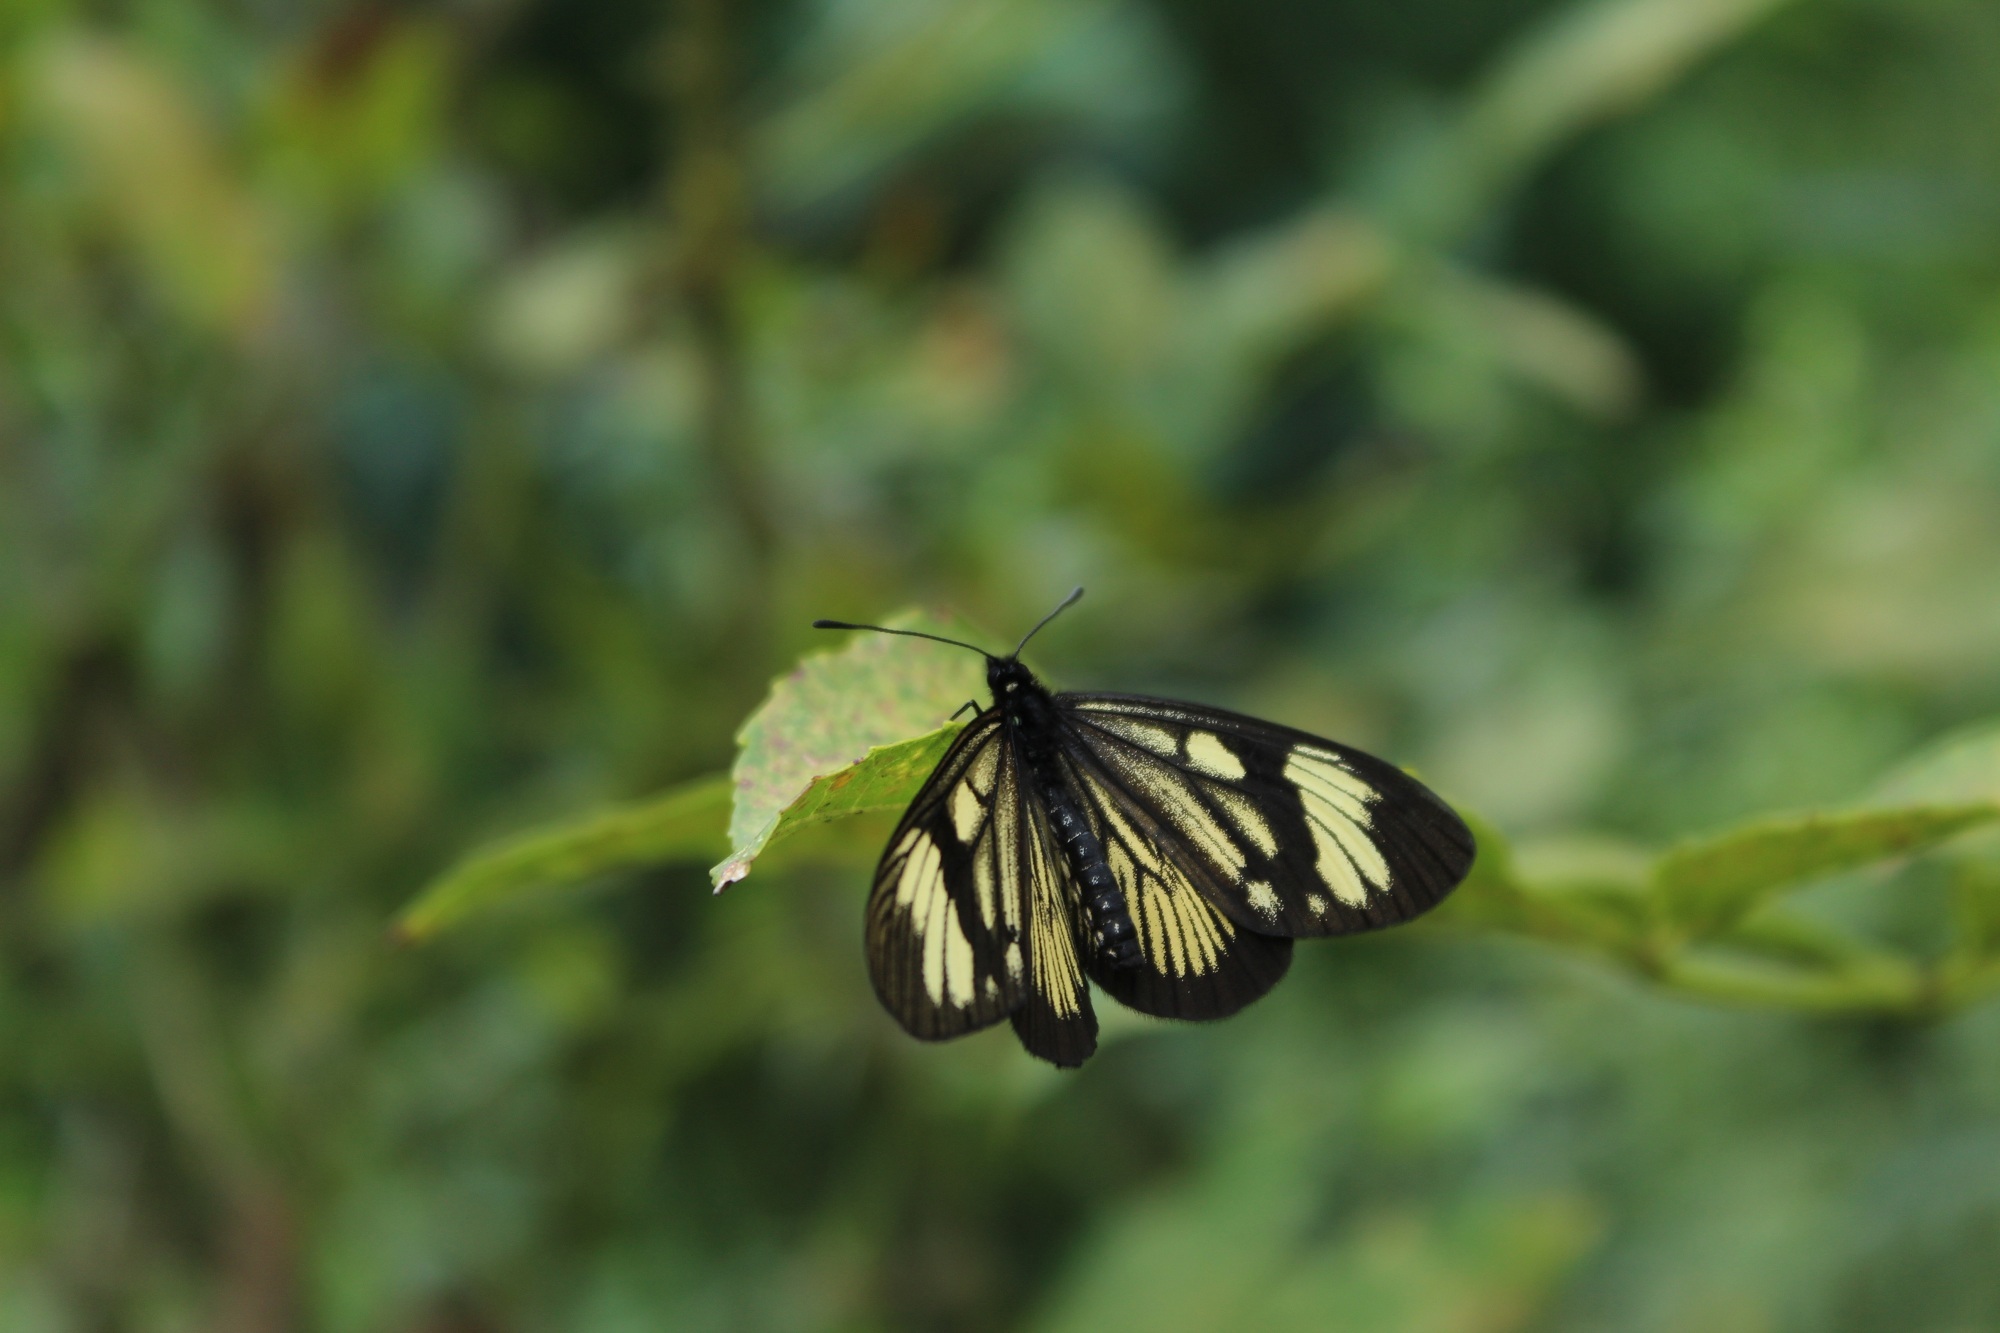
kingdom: Animalia
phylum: Arthropoda
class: Insecta
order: Lepidoptera
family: Nymphalidae
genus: Actinote
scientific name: Actinote anteas
